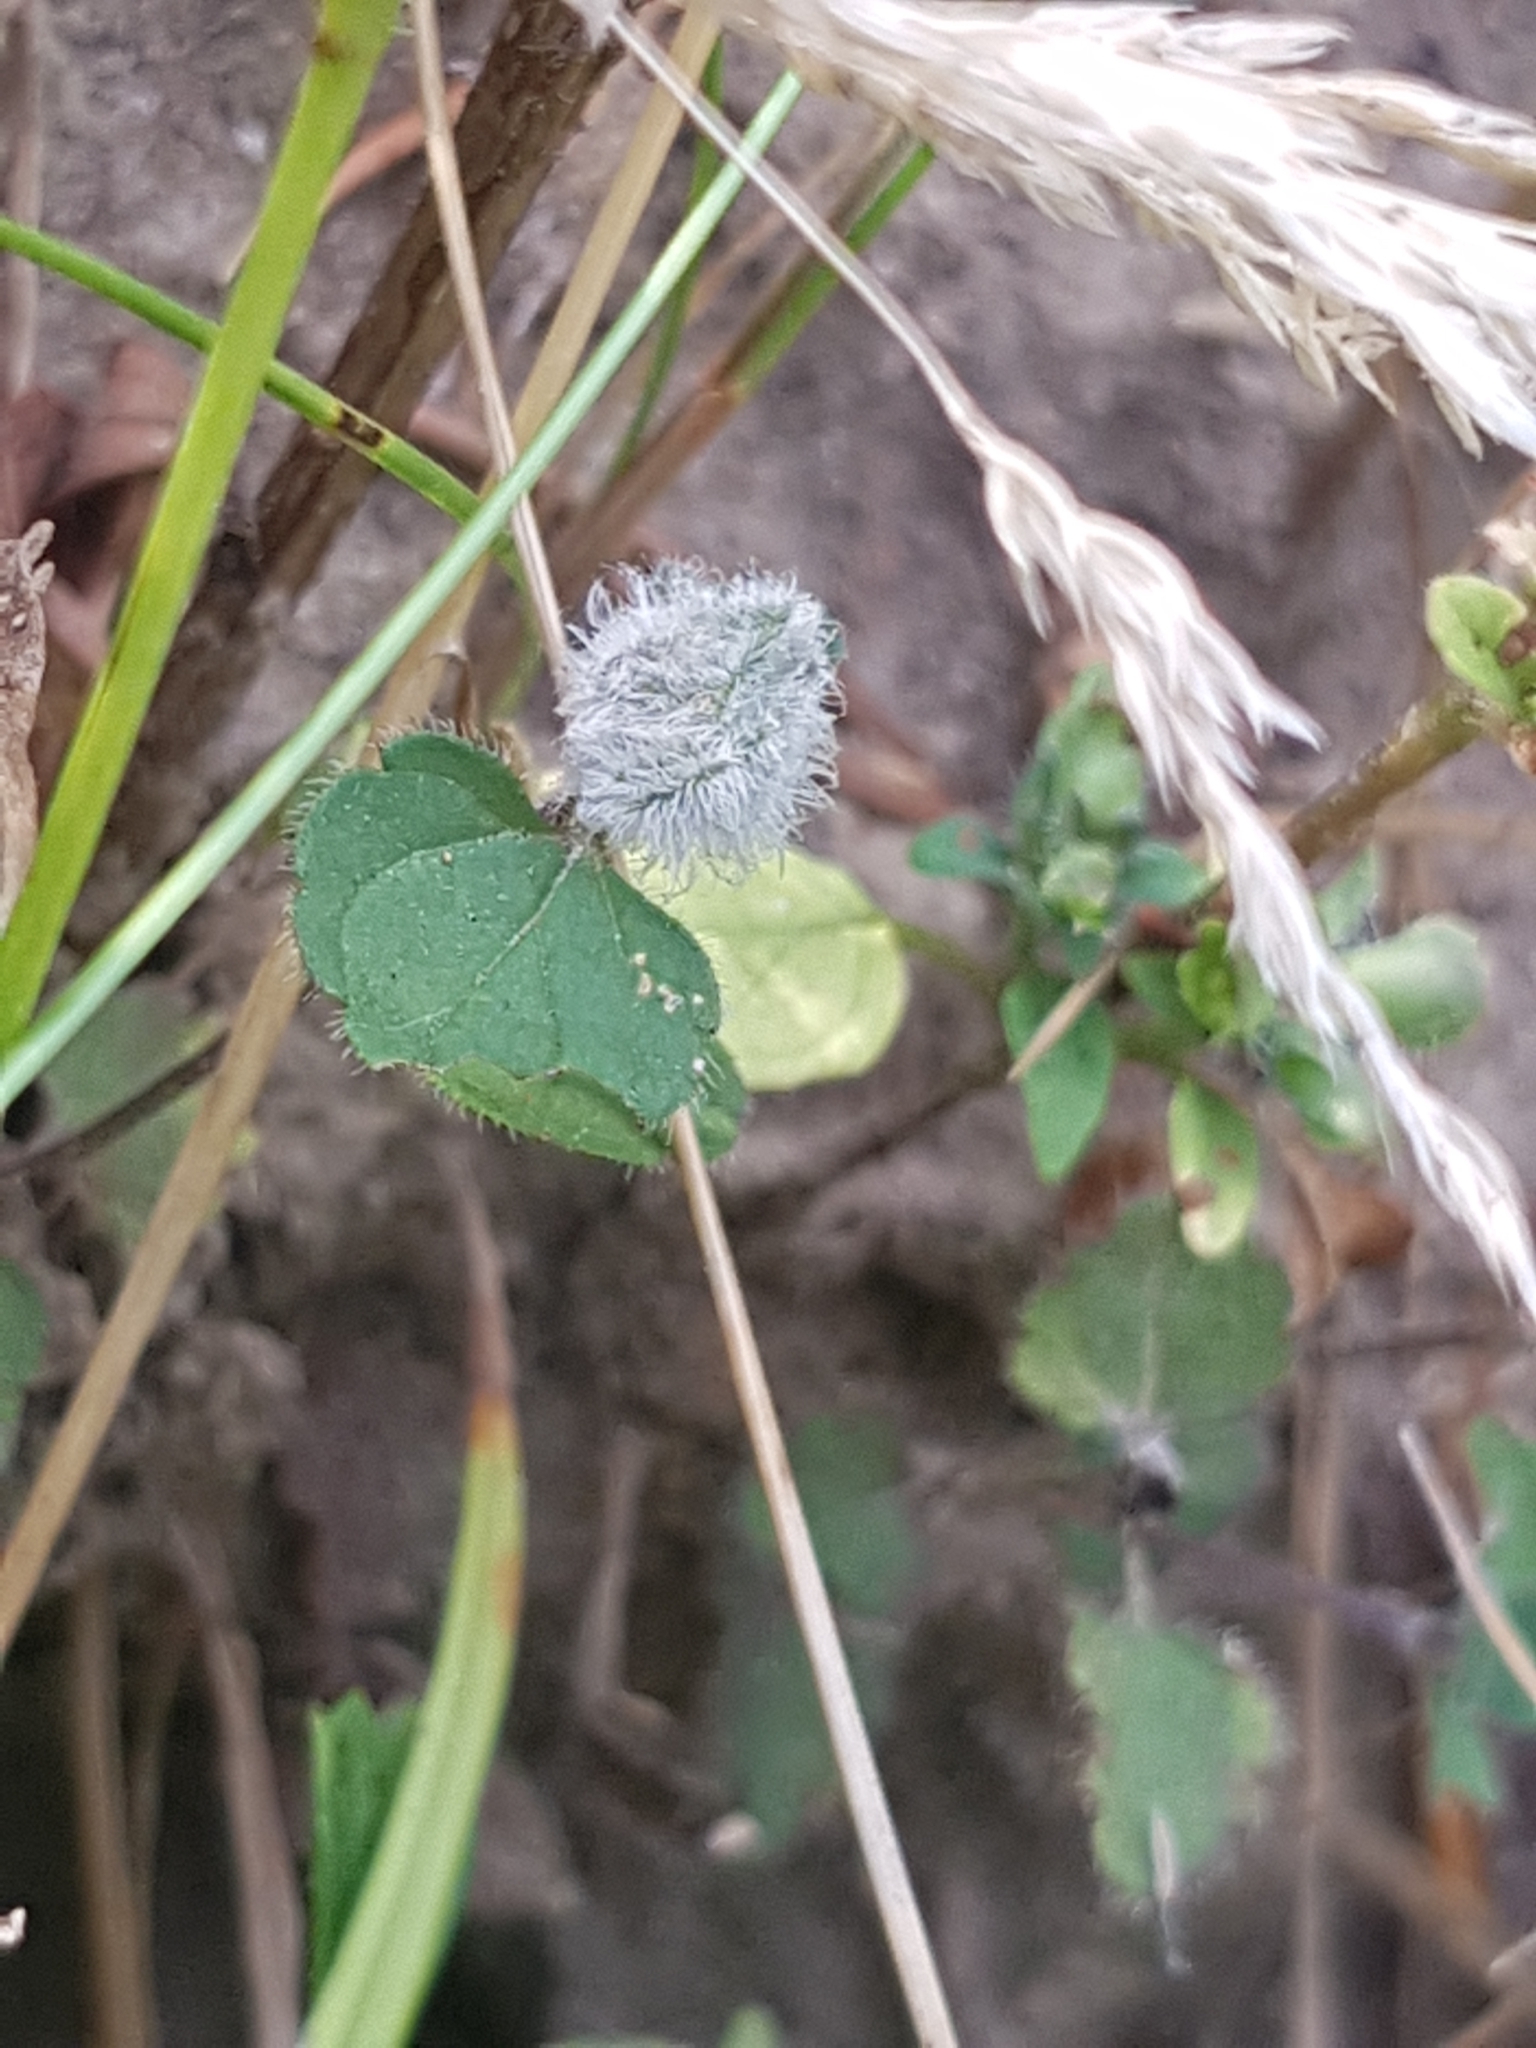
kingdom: Animalia
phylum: Arthropoda
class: Insecta
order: Diptera
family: Cecidomyiidae
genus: Jaapiella
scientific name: Jaapiella veronicae
